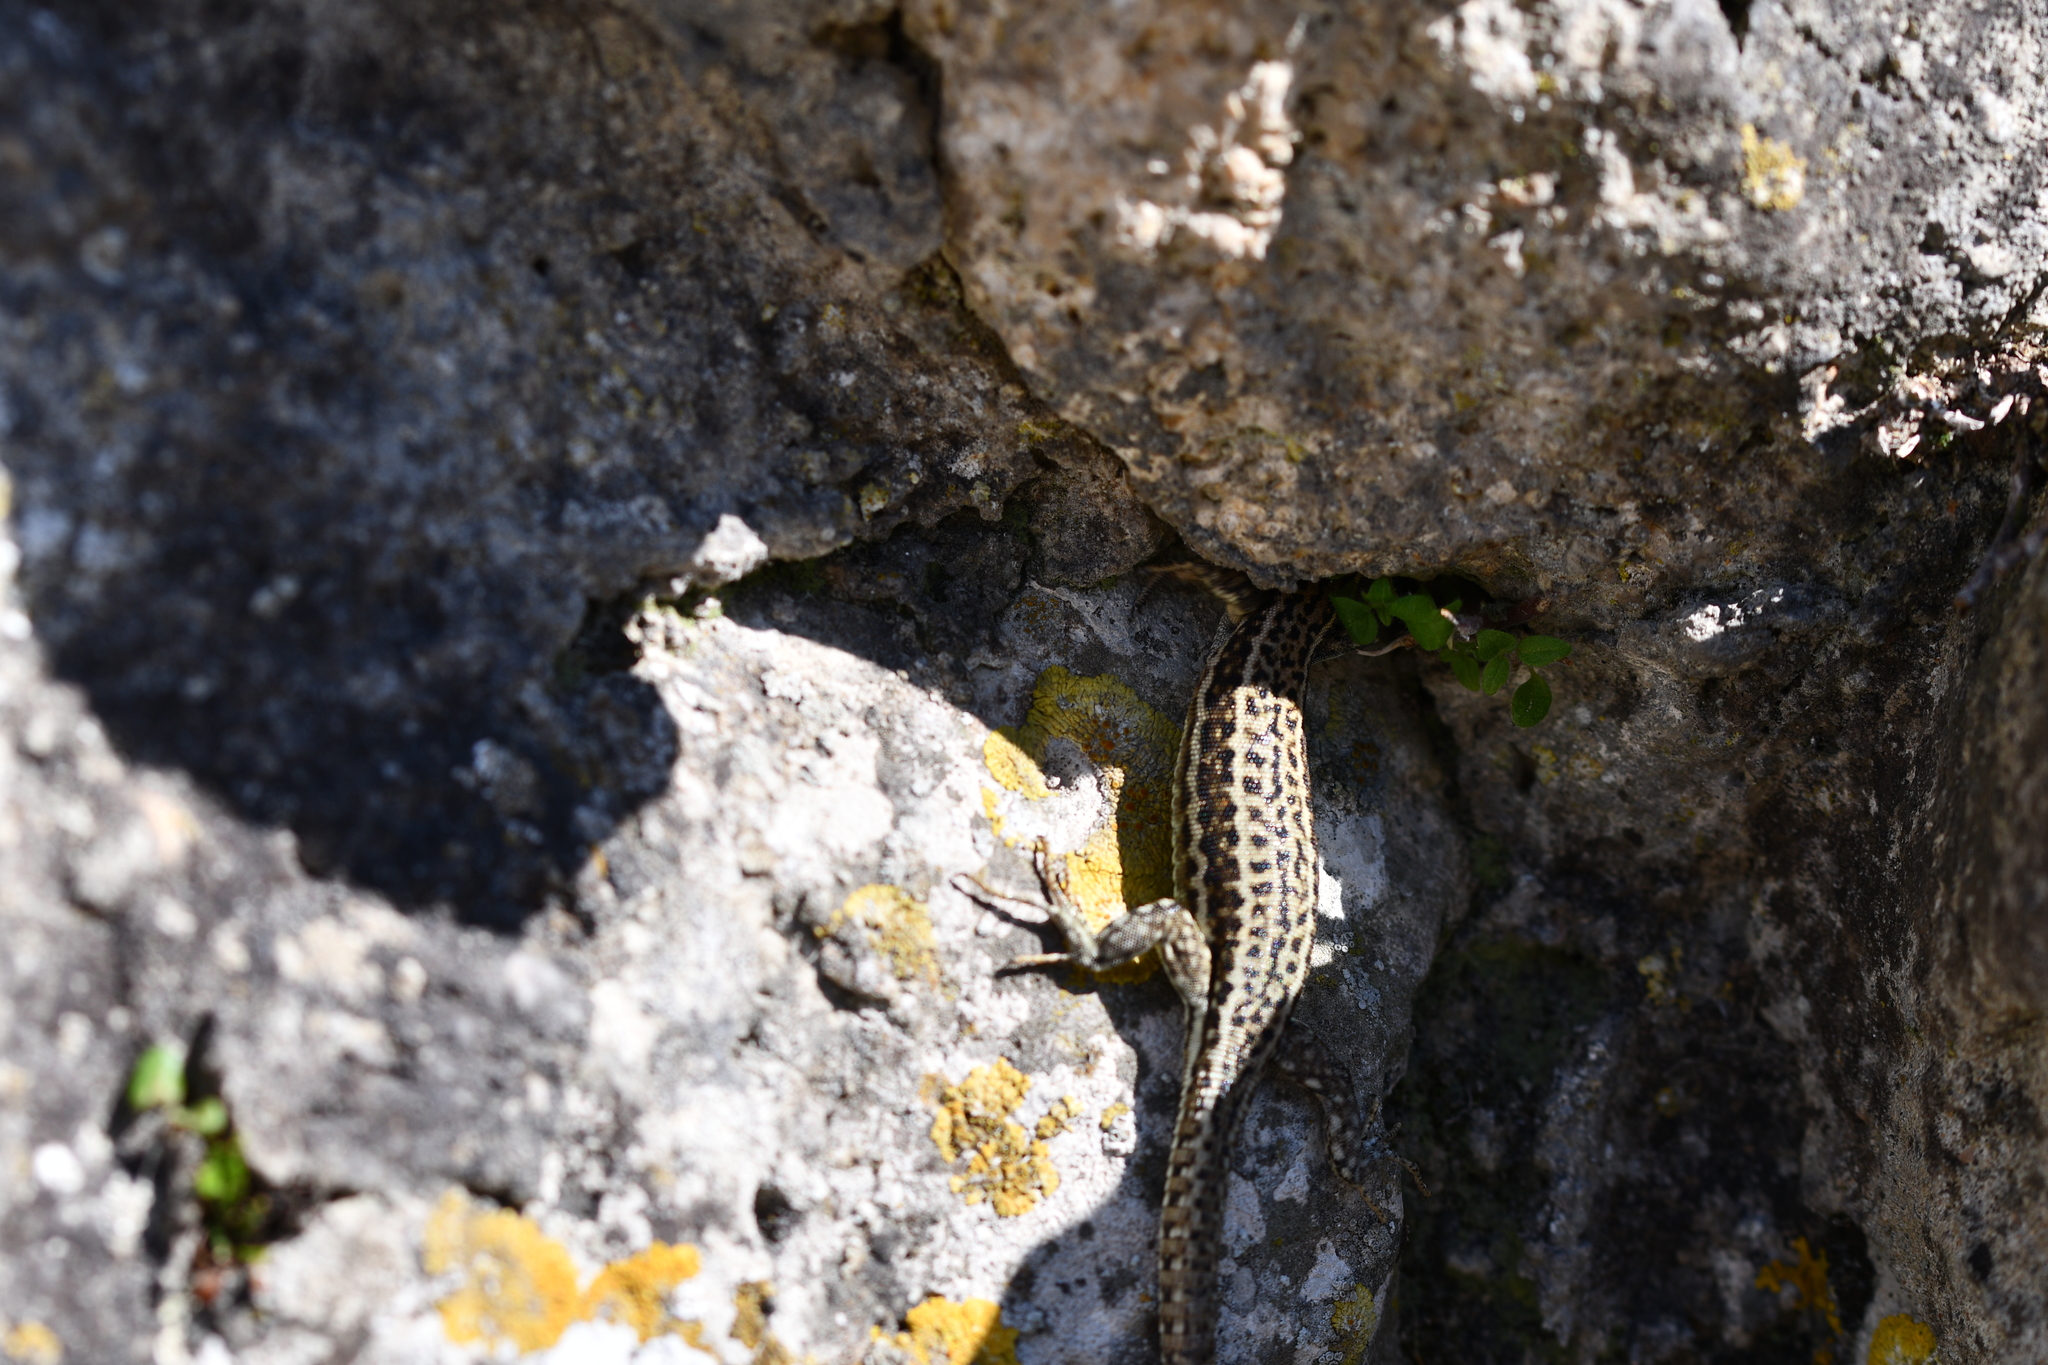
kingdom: Animalia
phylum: Chordata
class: Squamata
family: Lacertidae
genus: Podarcis
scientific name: Podarcis muralis
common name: Common wall lizard
